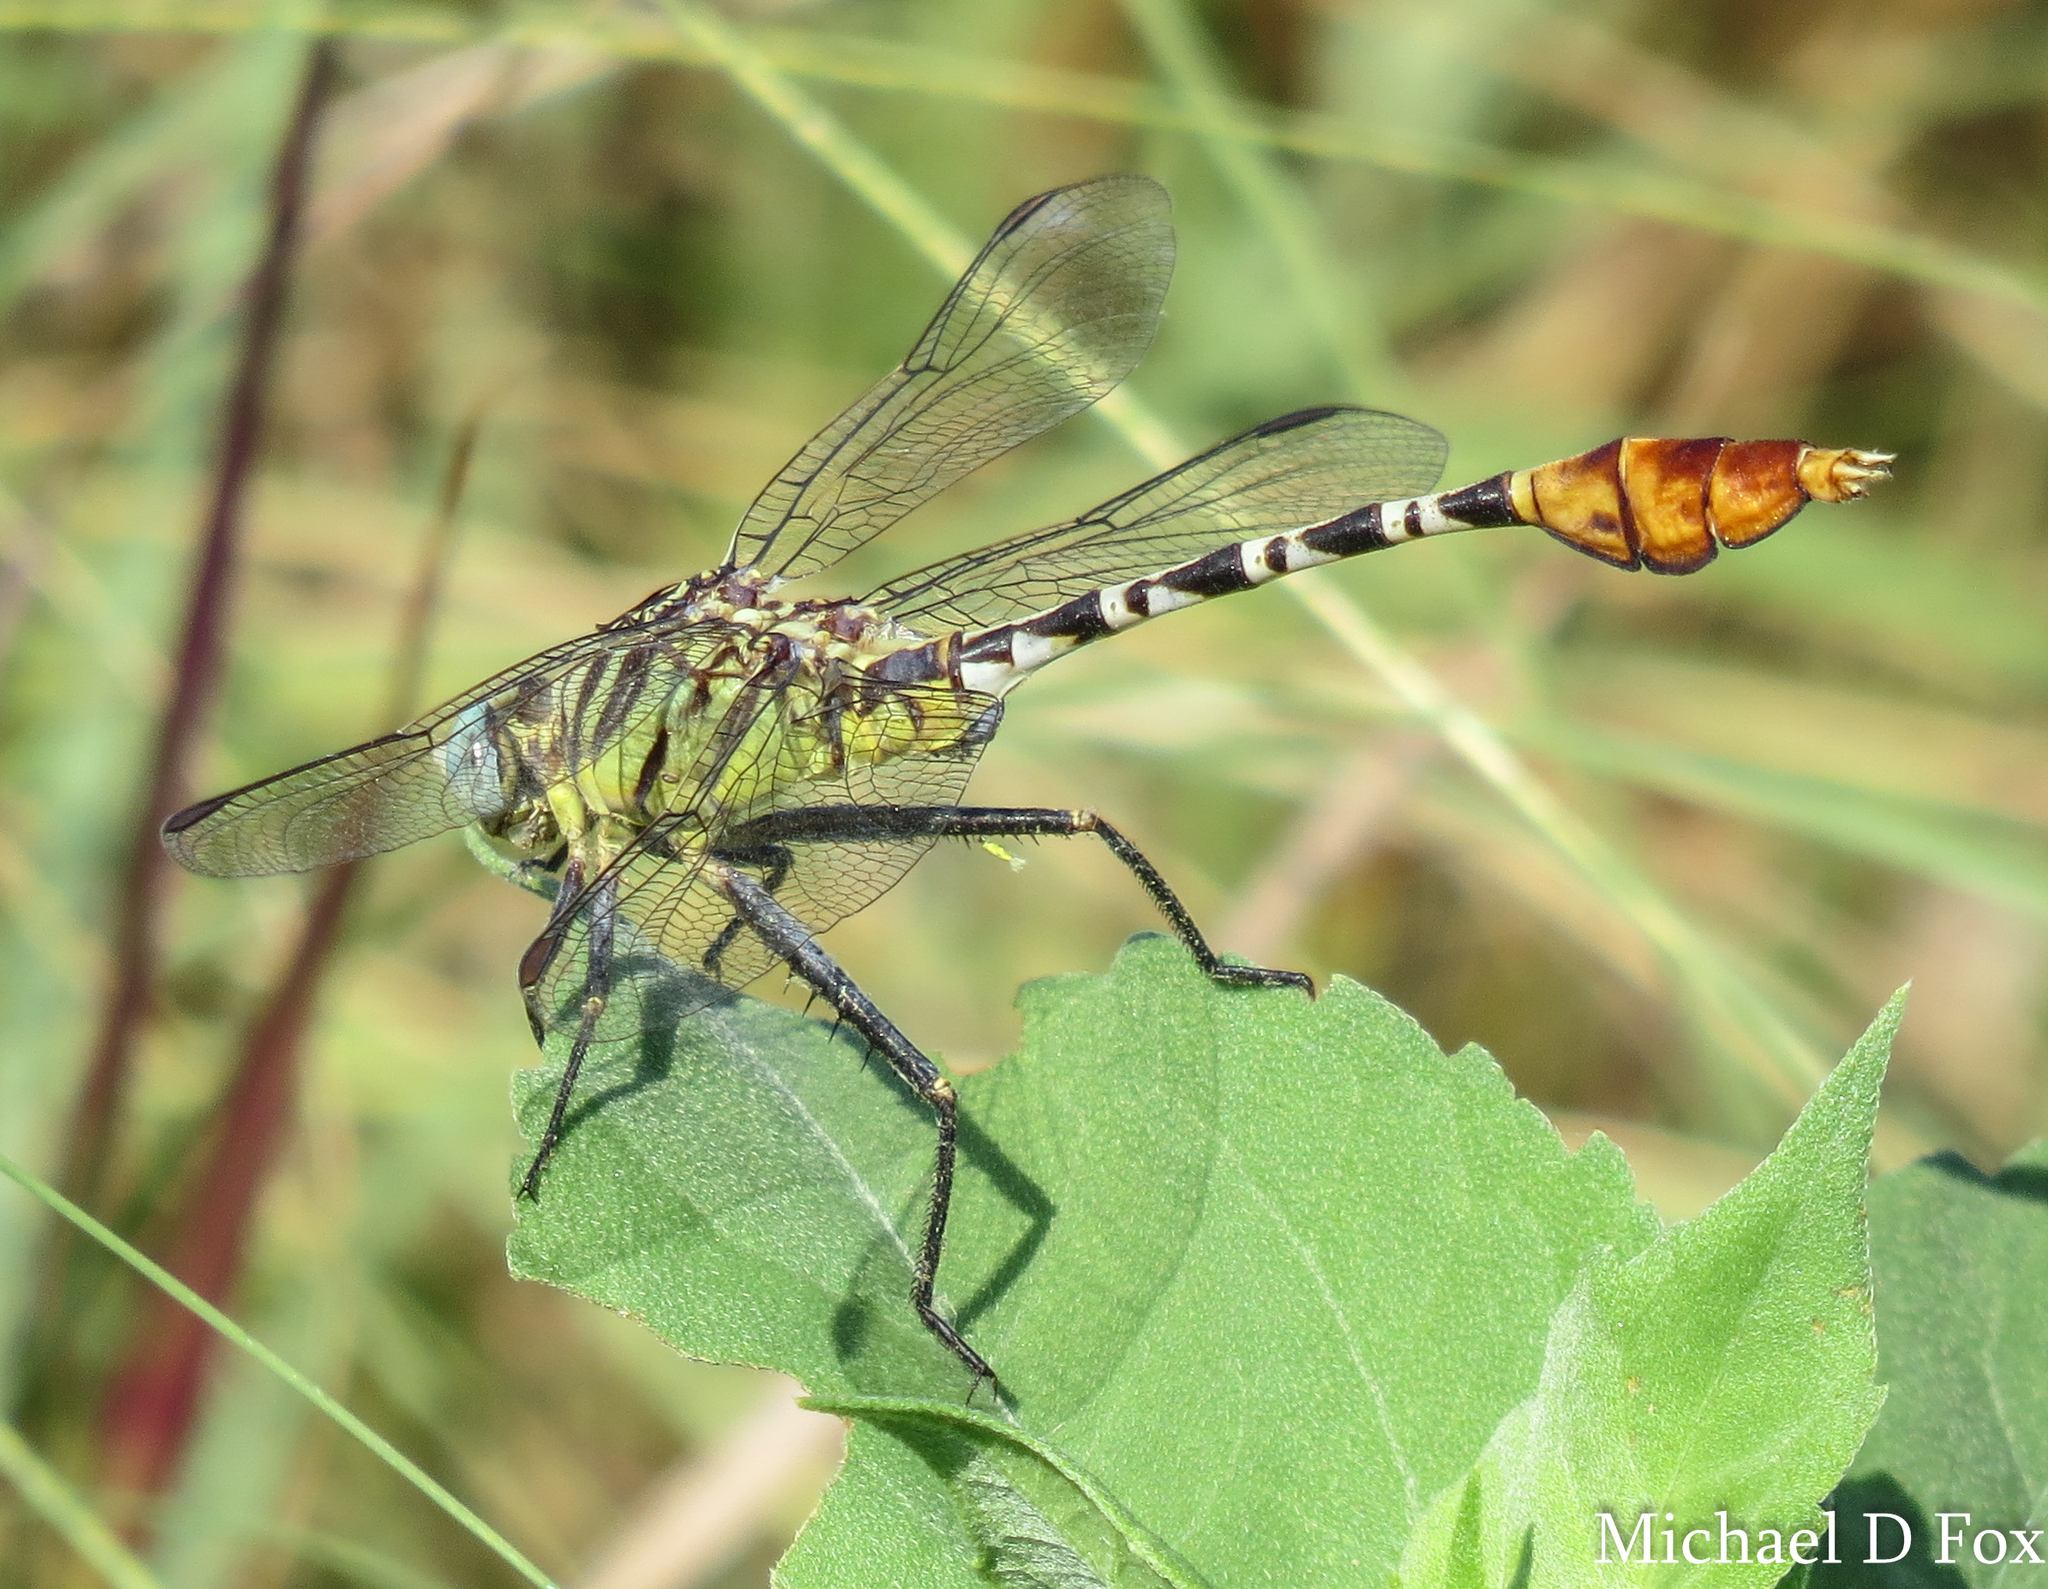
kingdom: Animalia
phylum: Arthropoda
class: Insecta
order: Odonata
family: Gomphidae
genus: Dromogomphus
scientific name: Dromogomphus spoliatus
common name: Flag-tailed spinyleg
